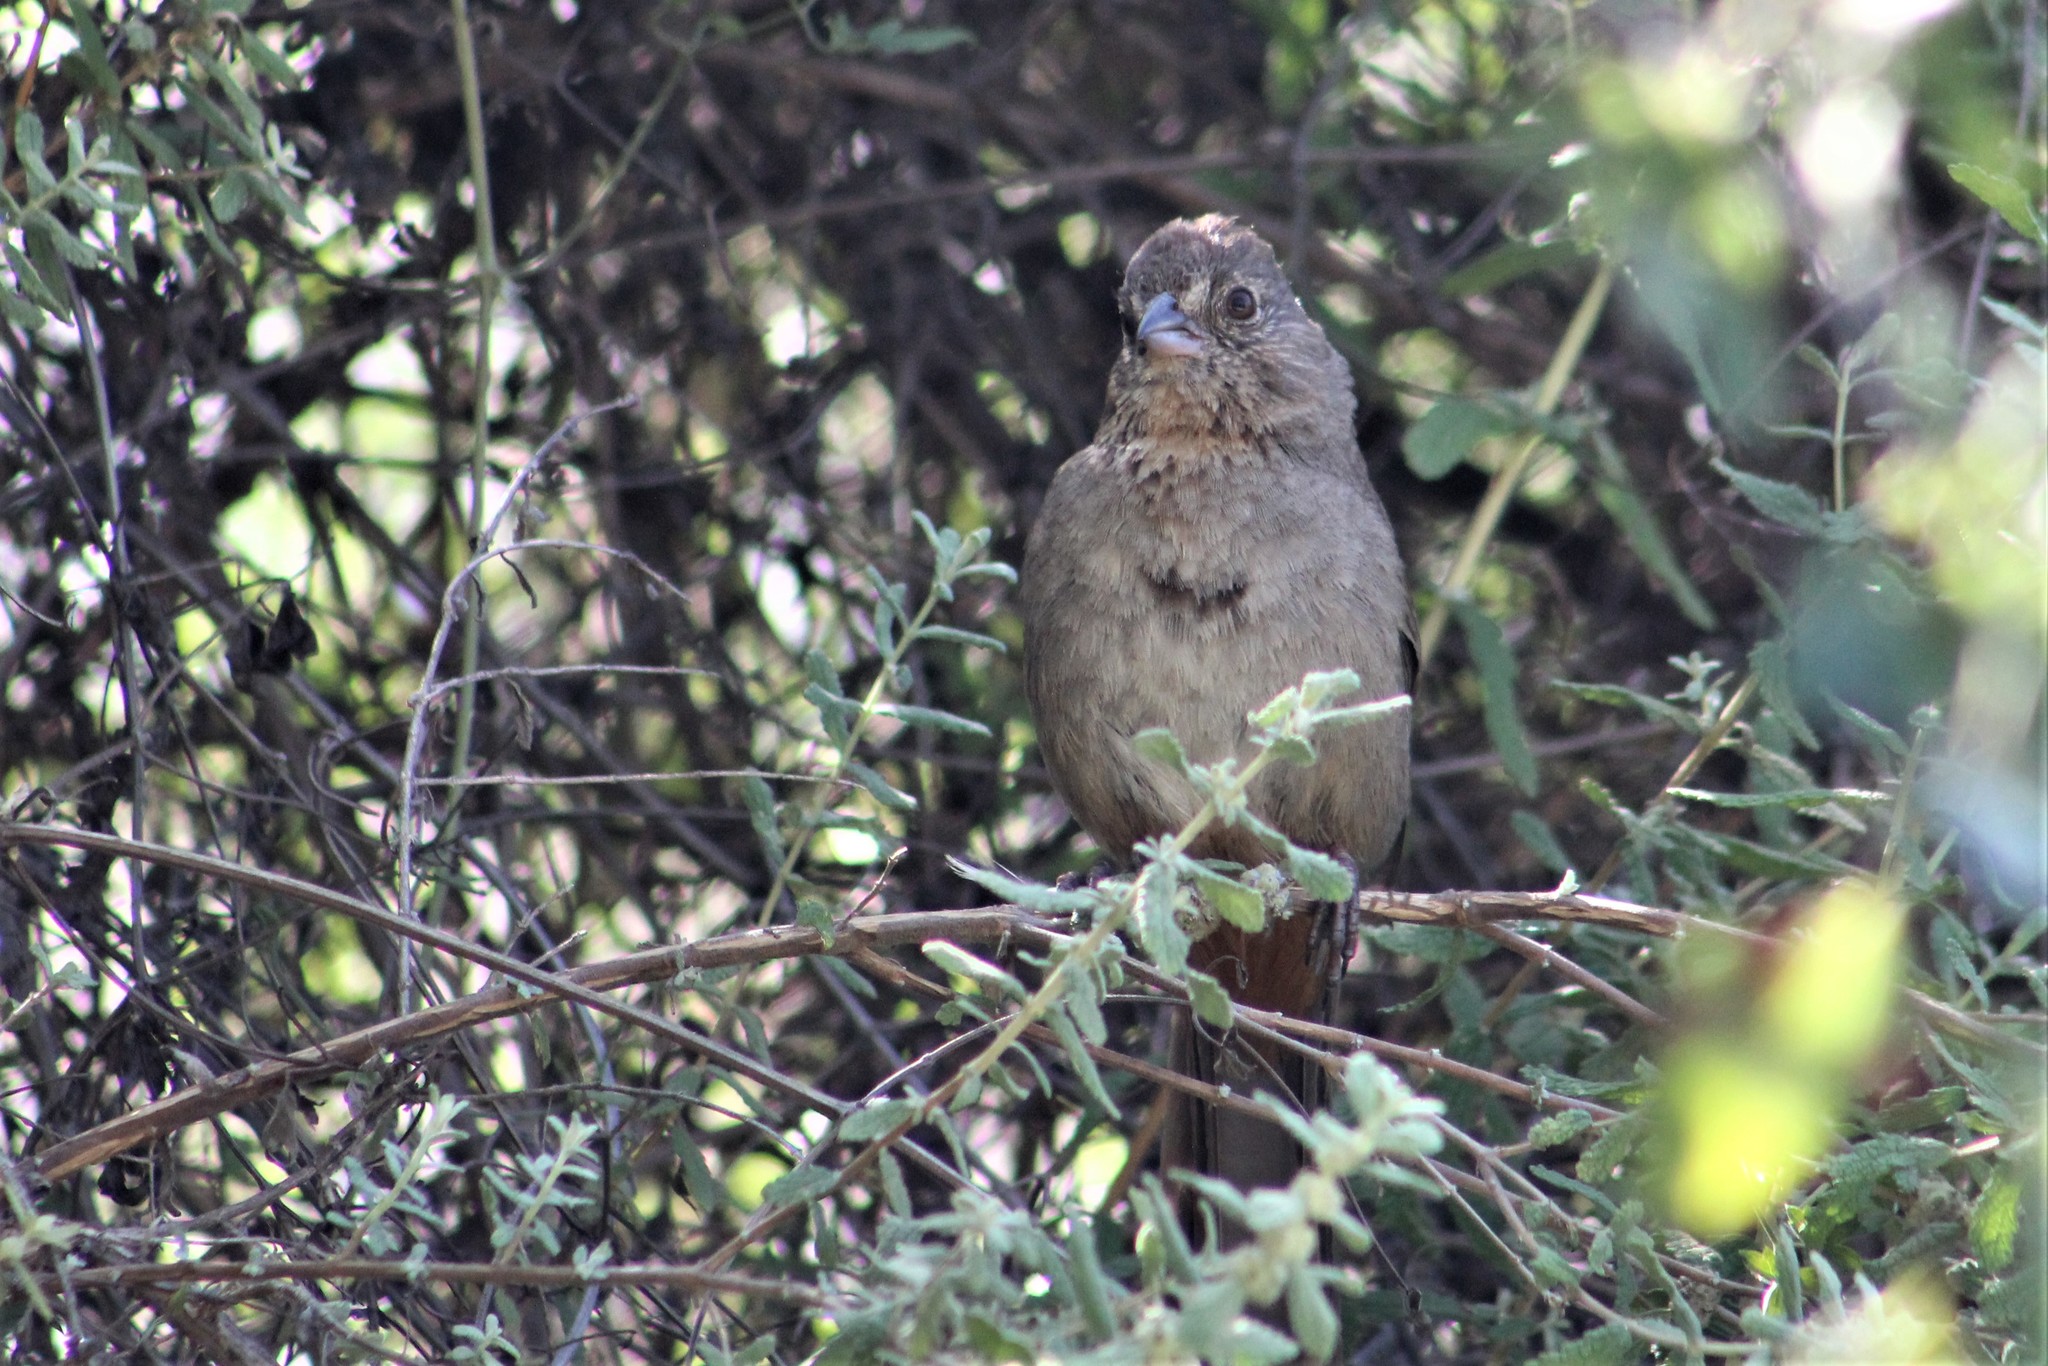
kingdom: Animalia
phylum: Chordata
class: Aves
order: Passeriformes
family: Passerellidae
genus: Melozone
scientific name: Melozone fusca
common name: Canyon towhee
